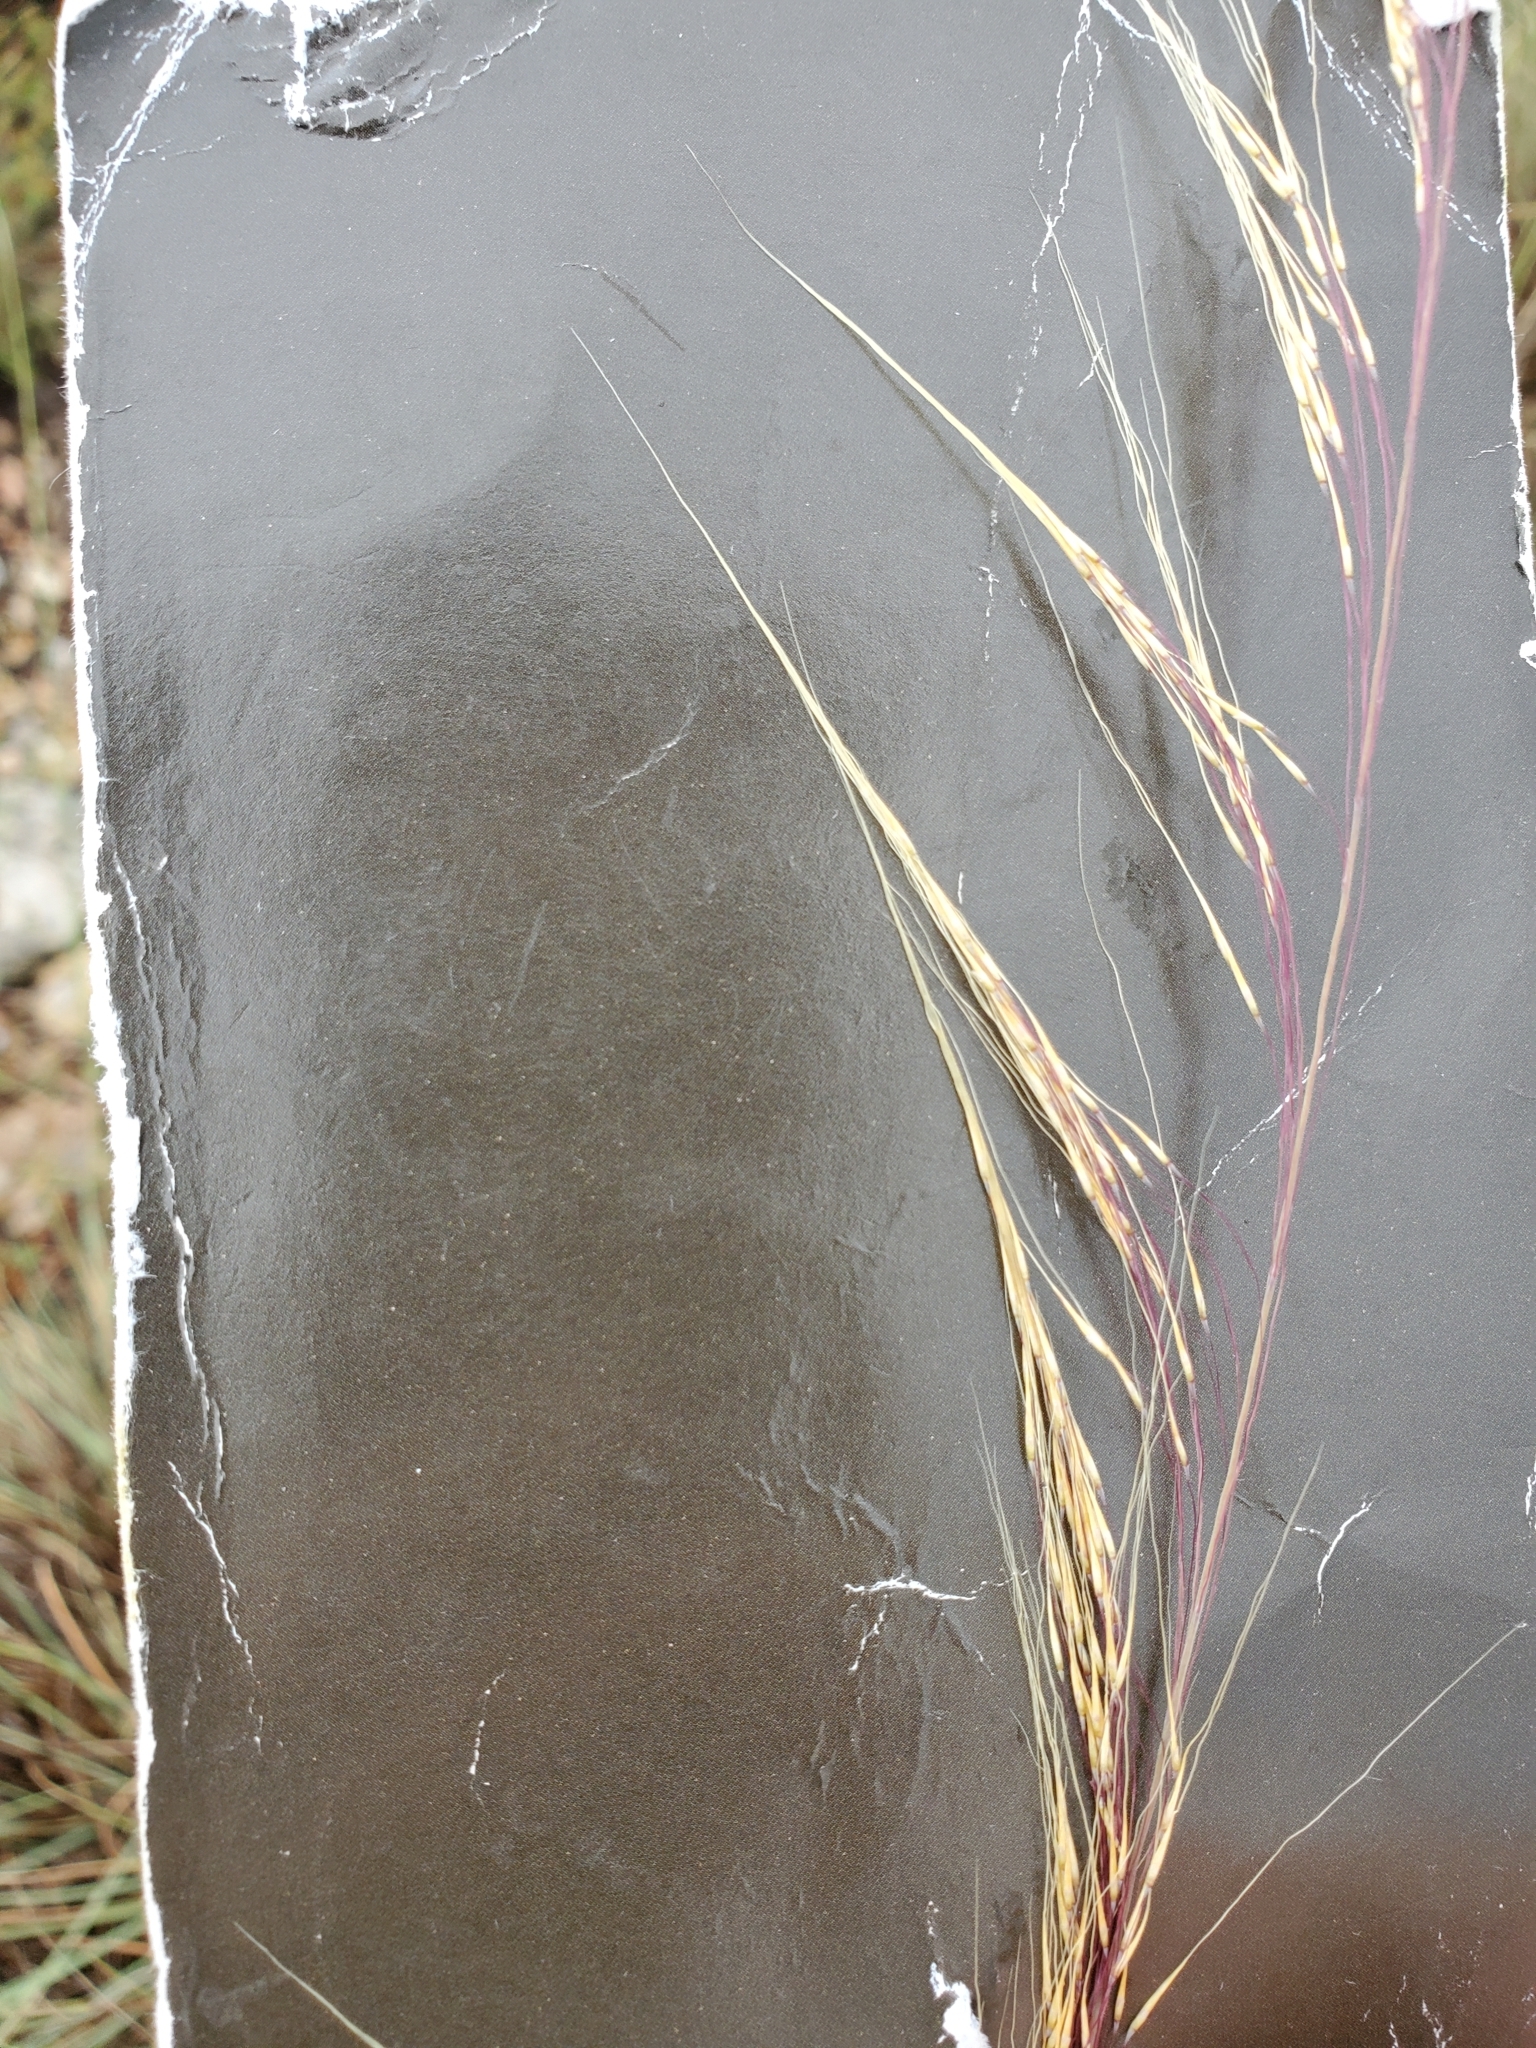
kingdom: Plantae
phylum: Tracheophyta
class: Liliopsida
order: Poales
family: Poaceae
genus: Muhlenbergia
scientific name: Muhlenbergia spiciformis
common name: Longawn muhly
